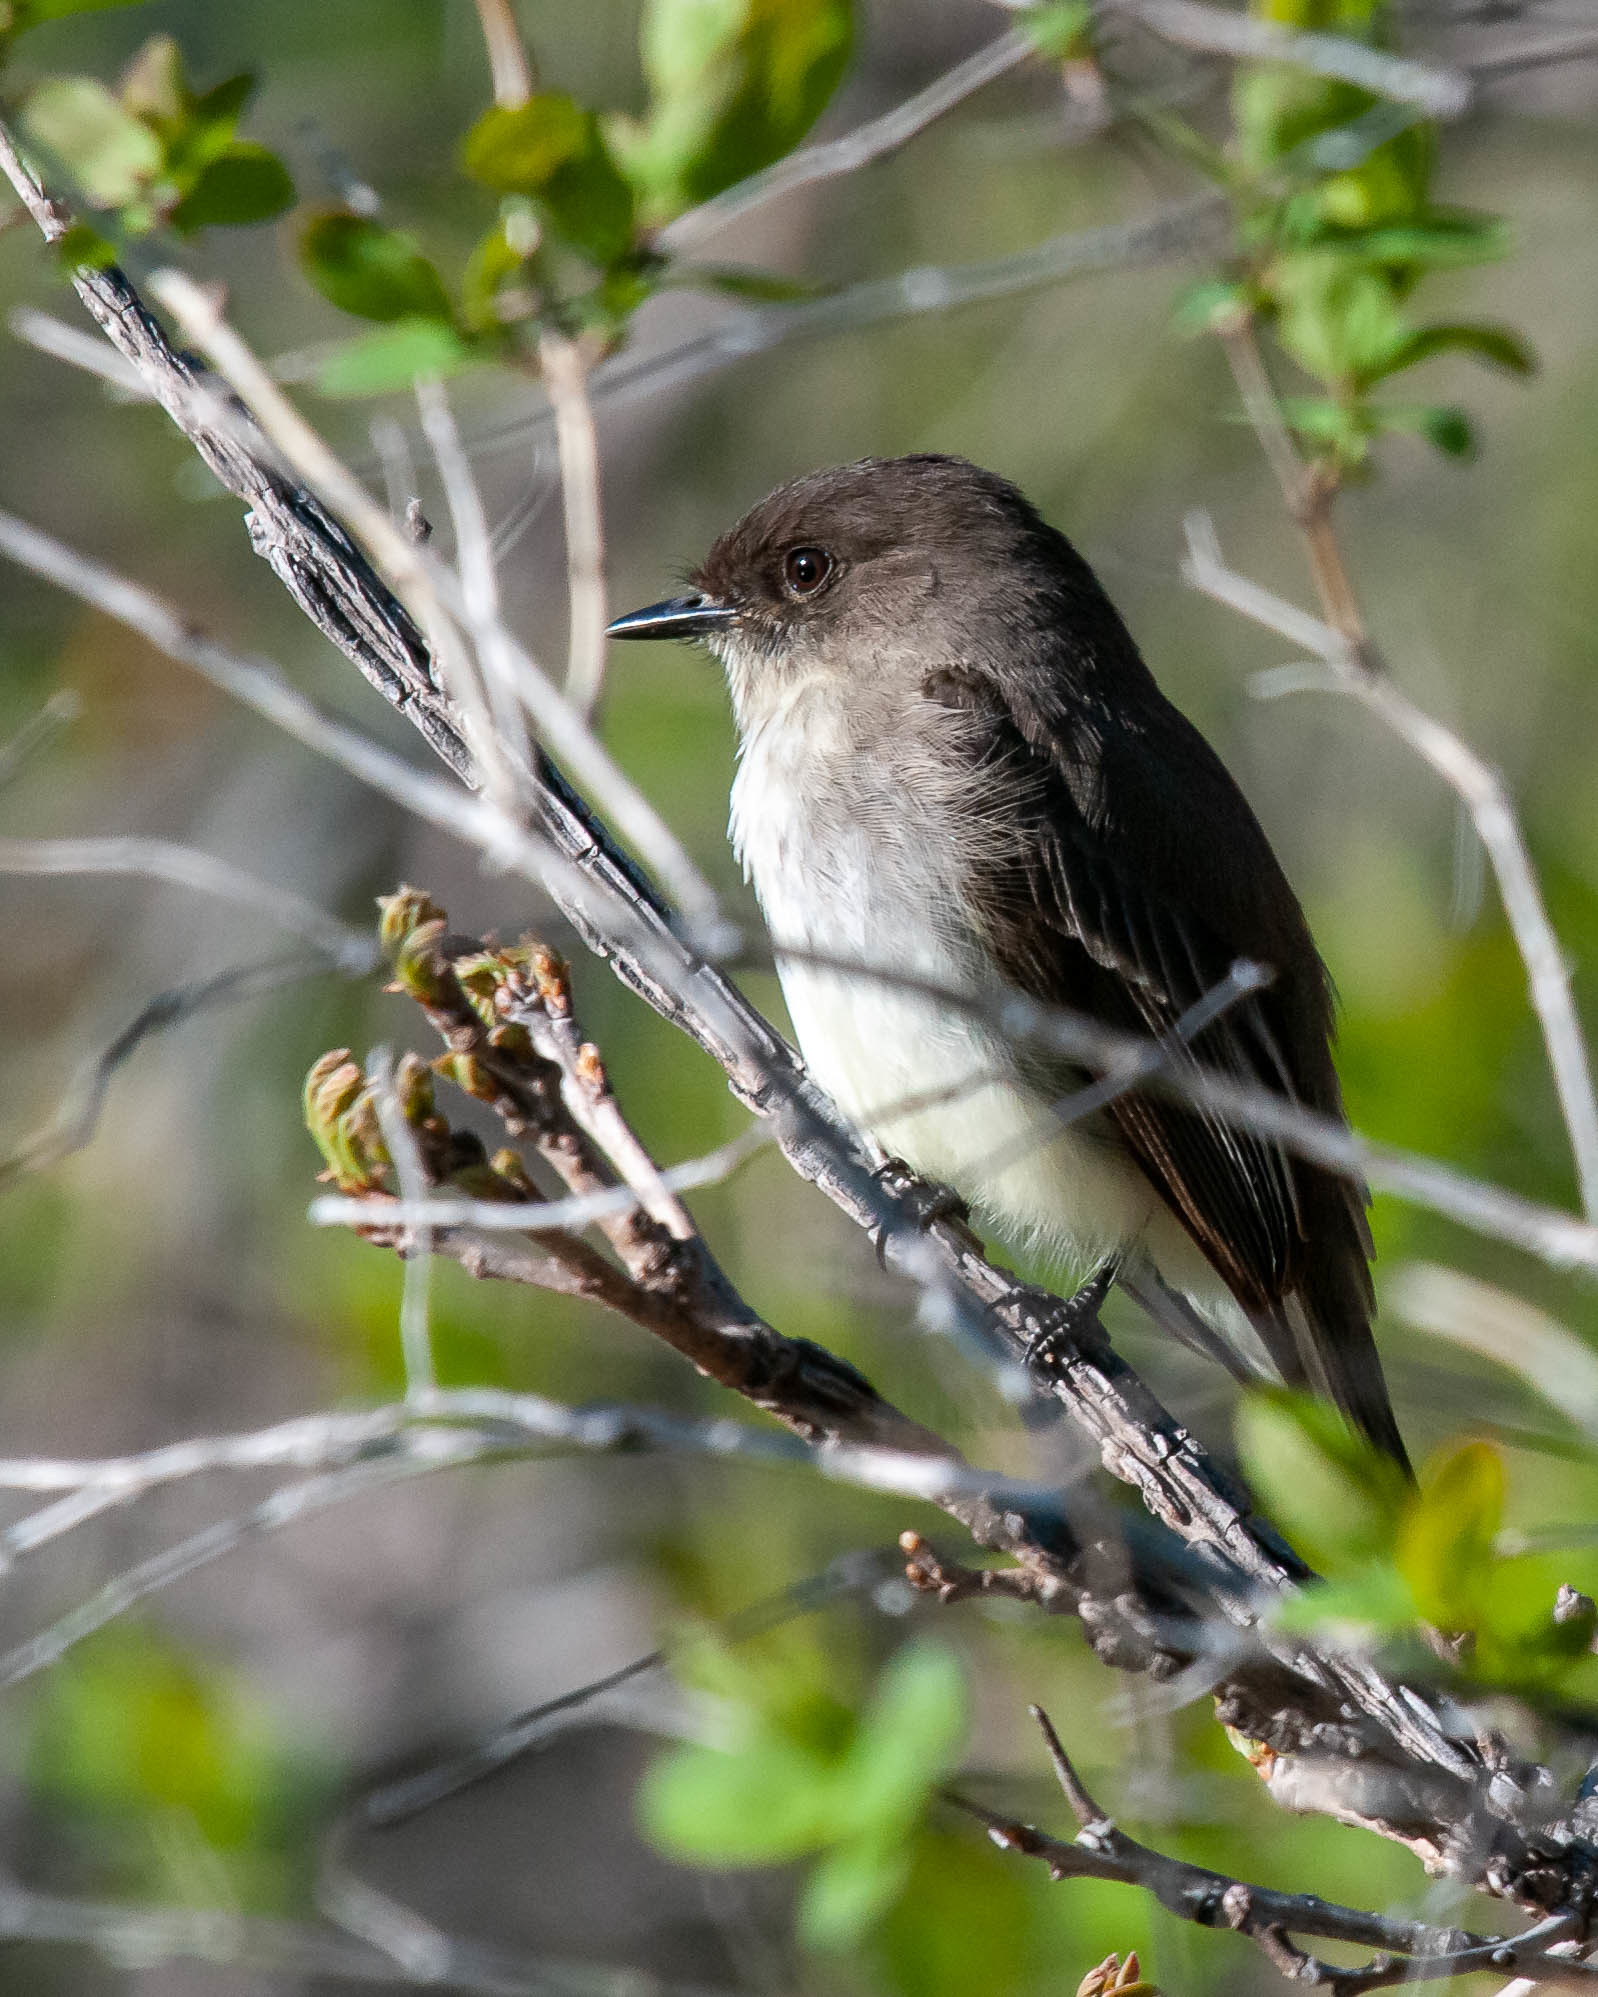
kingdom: Animalia
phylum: Chordata
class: Aves
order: Passeriformes
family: Tyrannidae
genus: Sayornis
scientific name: Sayornis phoebe
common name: Eastern phoebe
